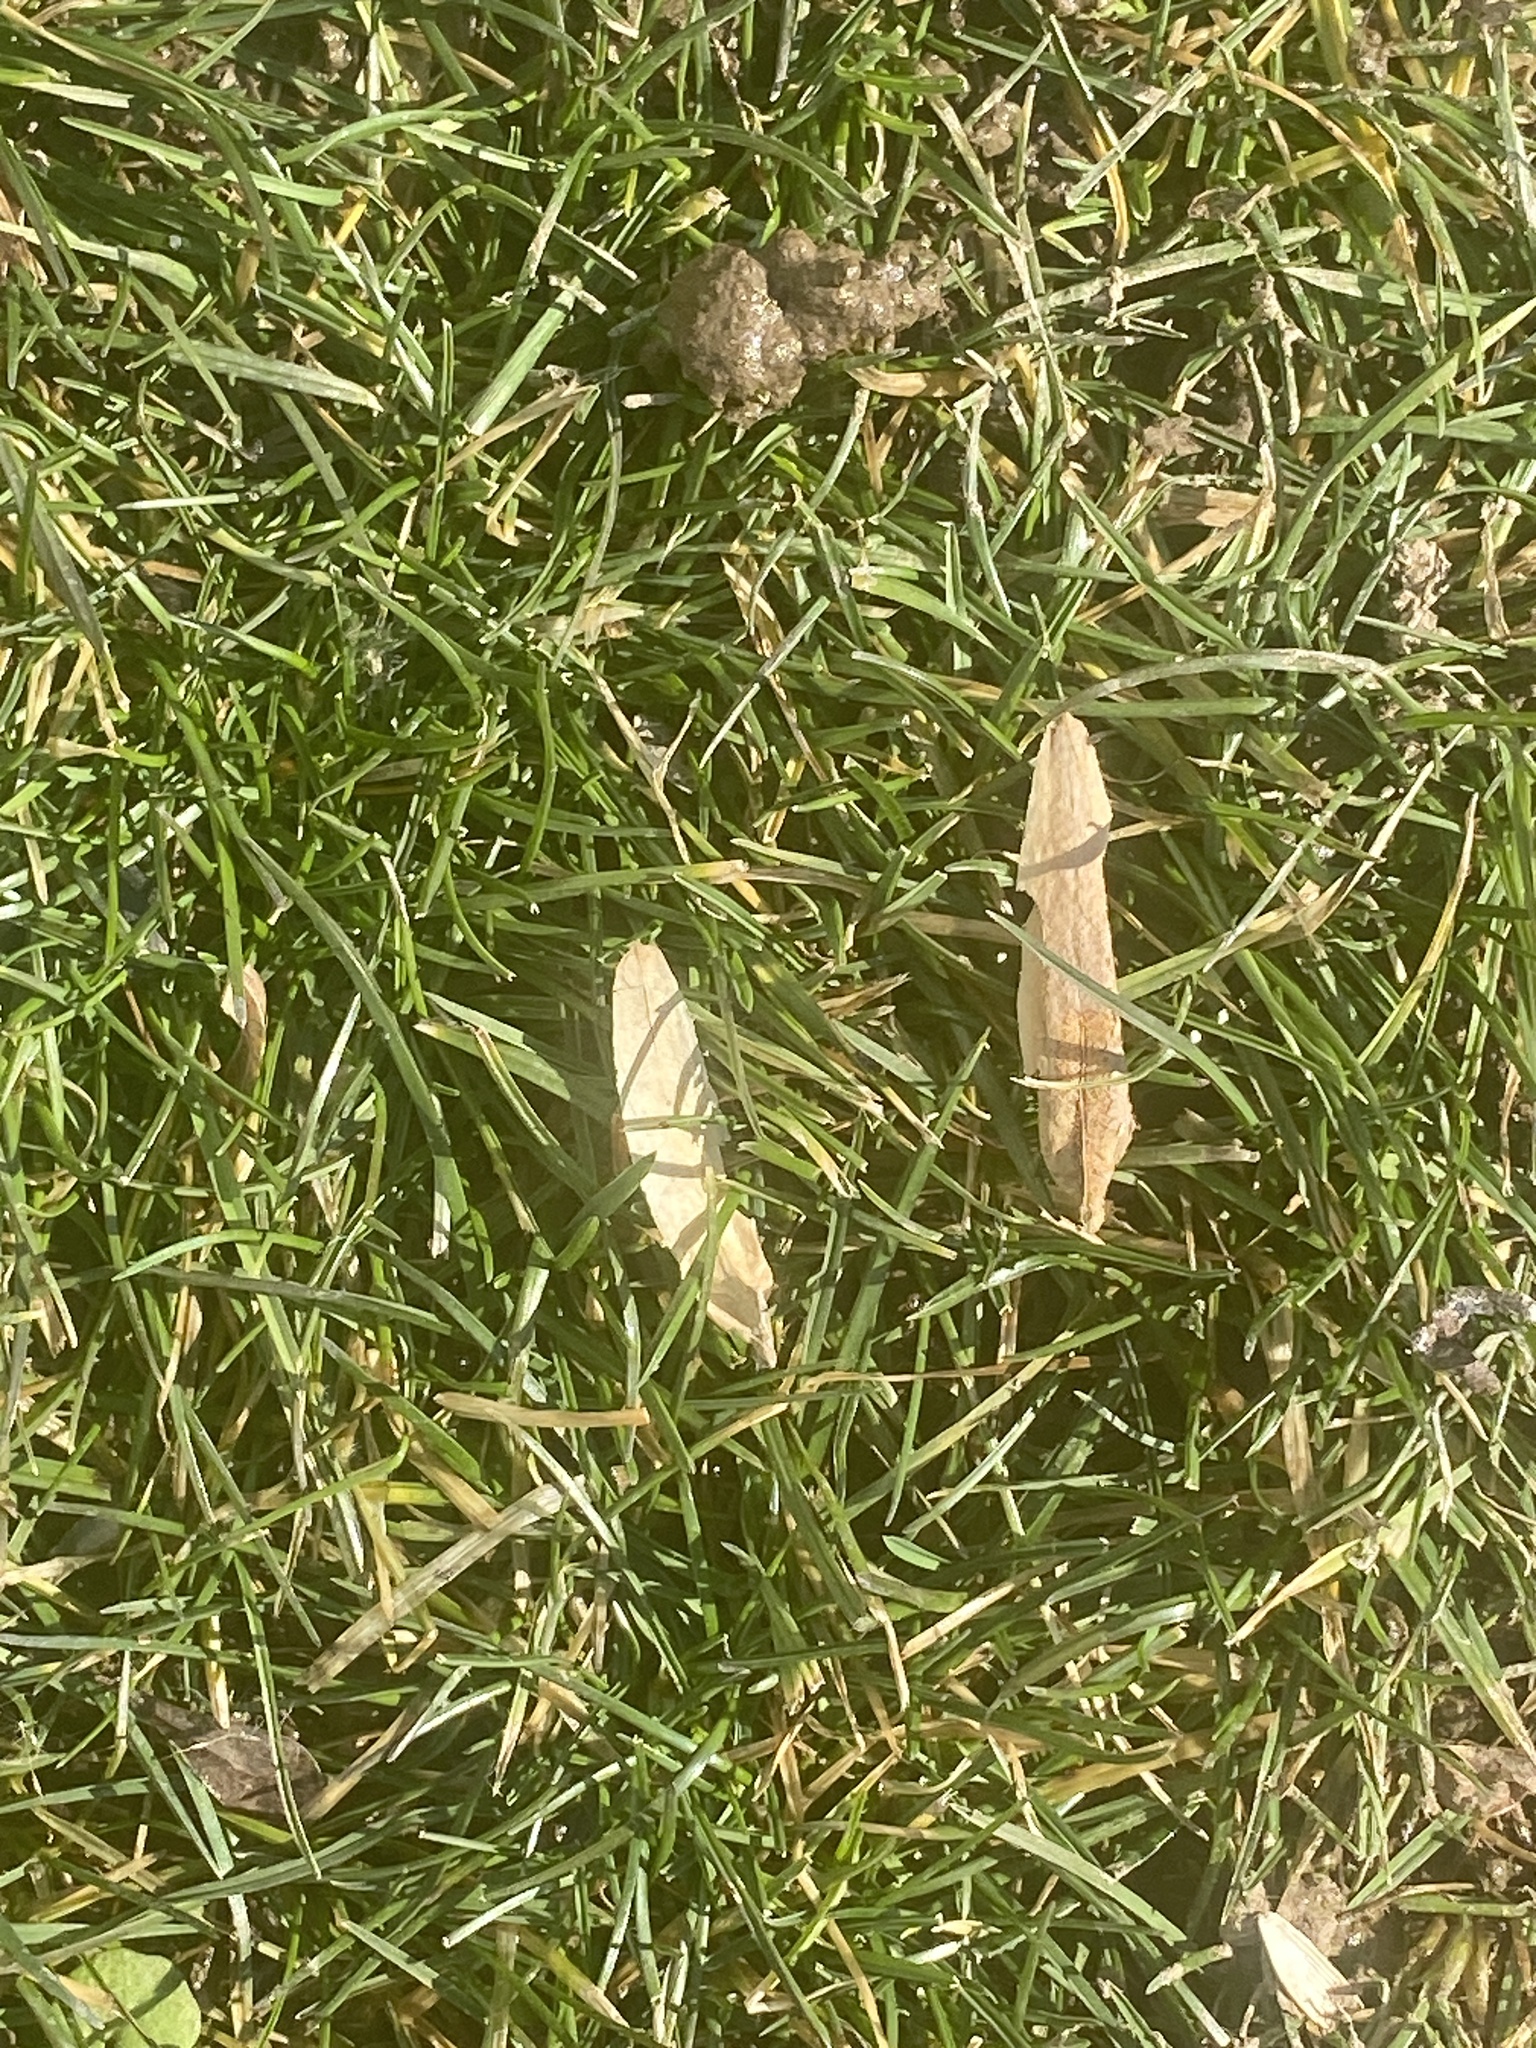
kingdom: Plantae
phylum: Tracheophyta
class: Magnoliopsida
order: Magnoliales
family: Magnoliaceae
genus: Liriodendron
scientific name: Liriodendron tulipifera
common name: Tulip tree
